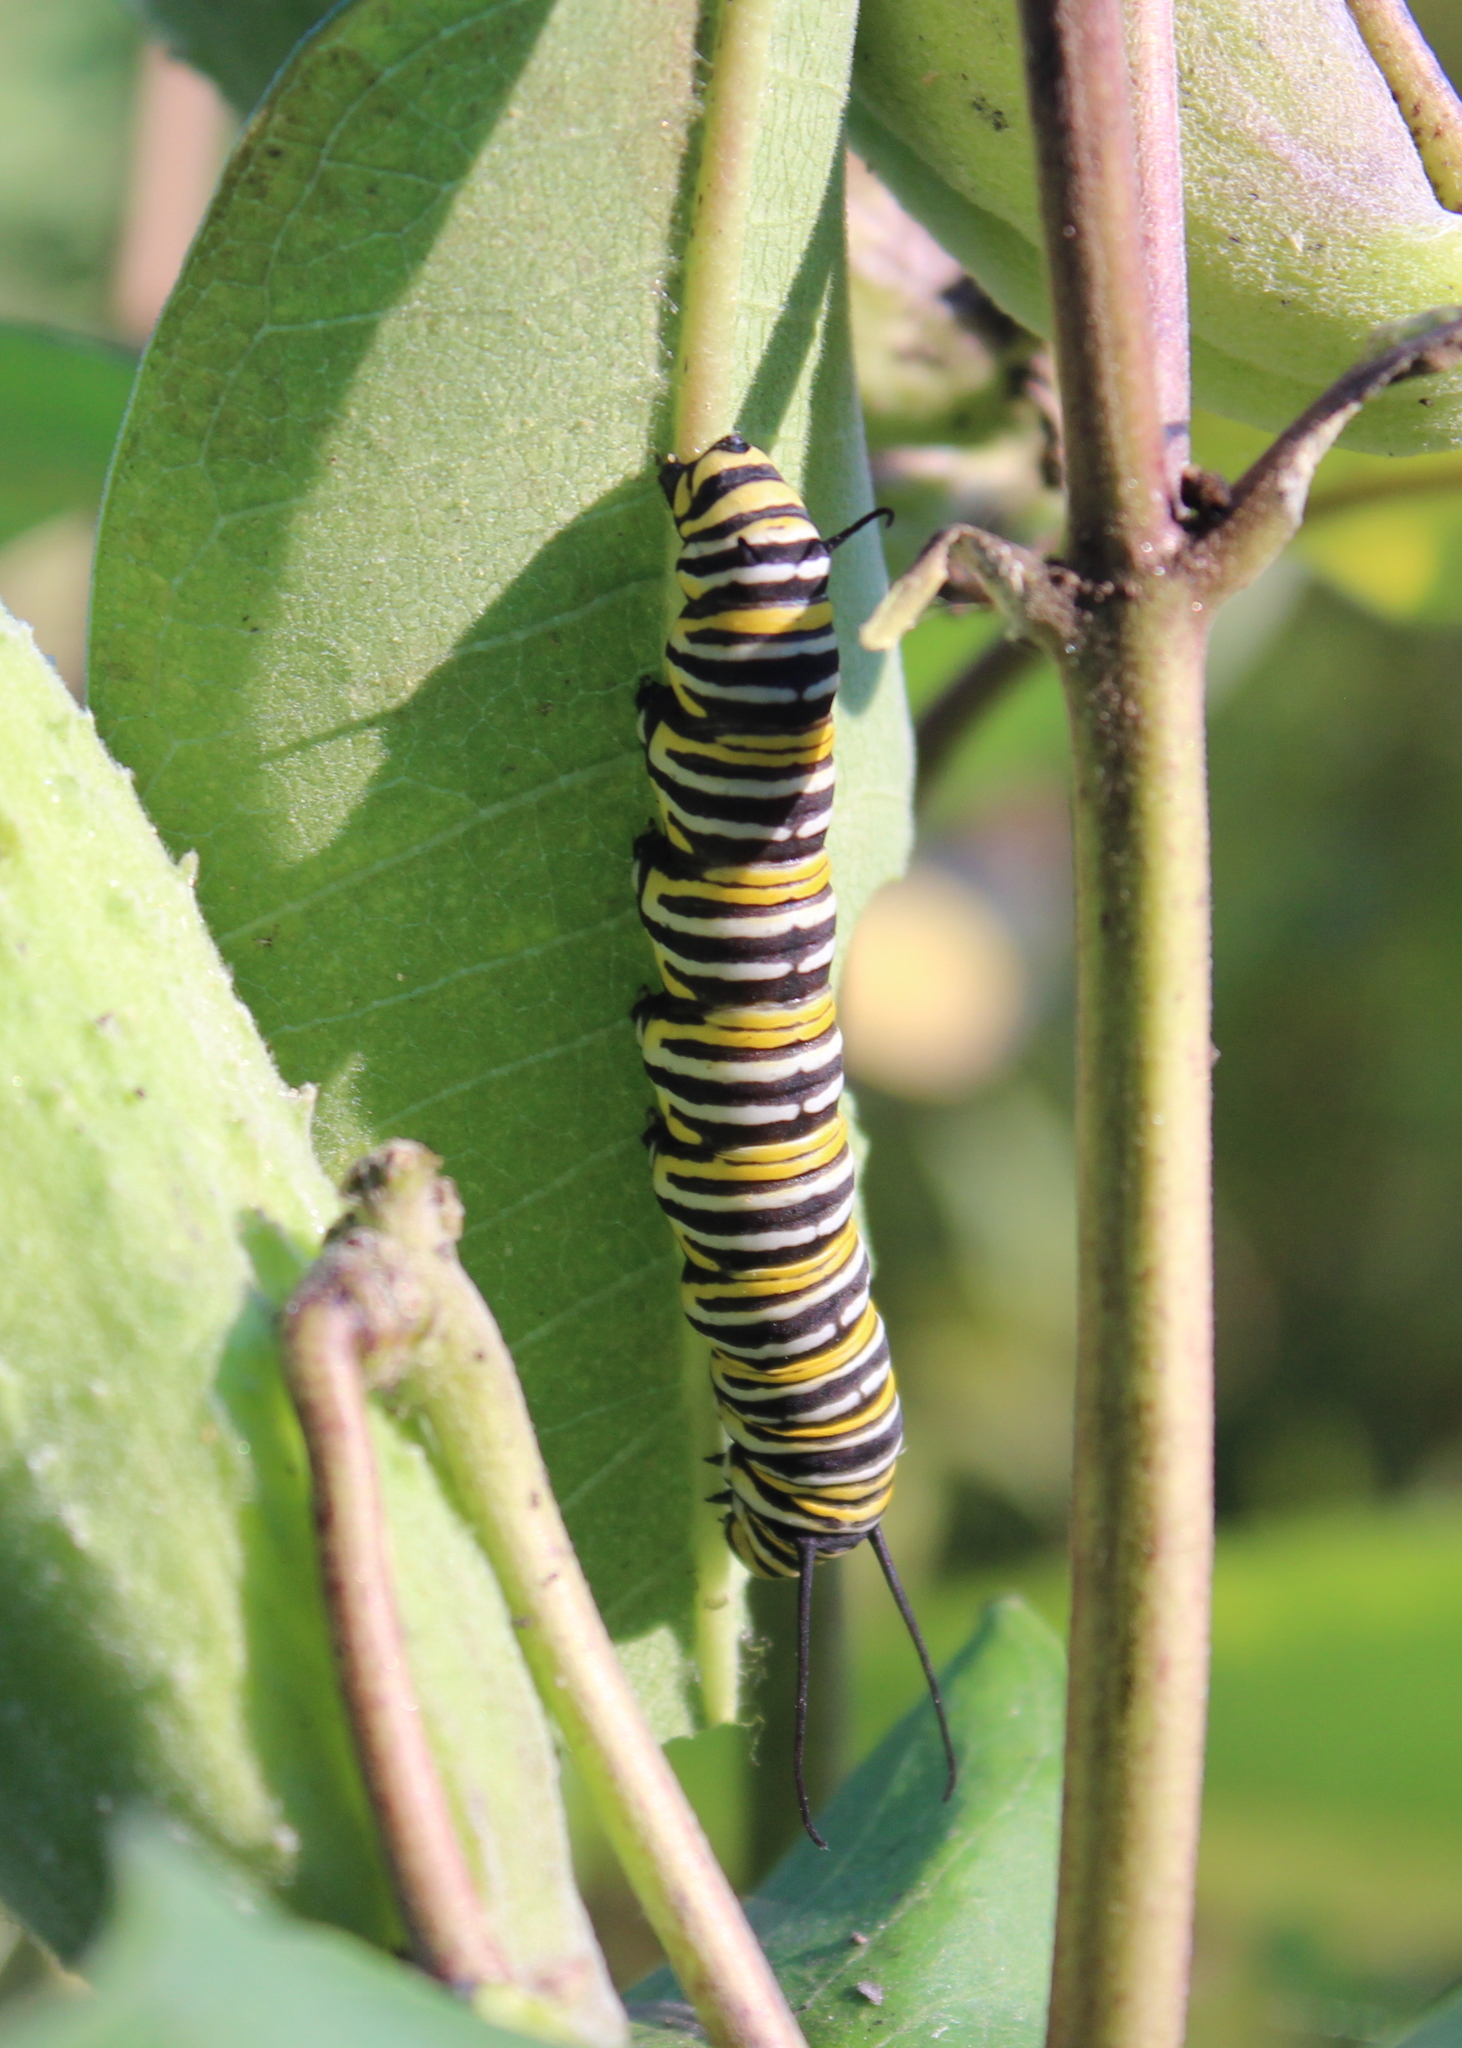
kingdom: Animalia
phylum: Arthropoda
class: Insecta
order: Lepidoptera
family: Nymphalidae
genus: Danaus
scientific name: Danaus plexippus
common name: Monarch
